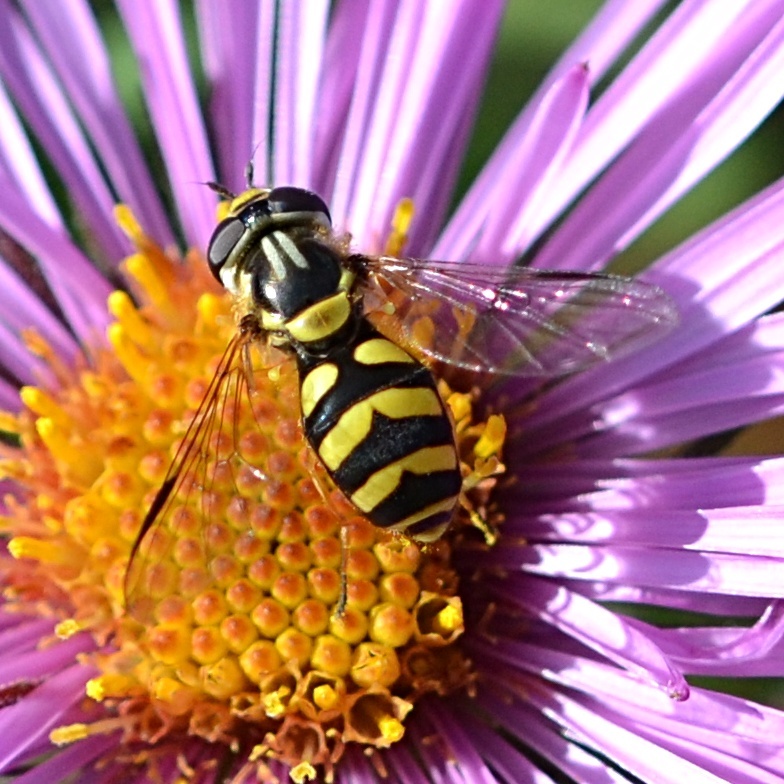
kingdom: Animalia
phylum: Arthropoda
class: Insecta
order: Diptera
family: Syrphidae
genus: Dasysyrphus
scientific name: Dasysyrphus albostriatus
